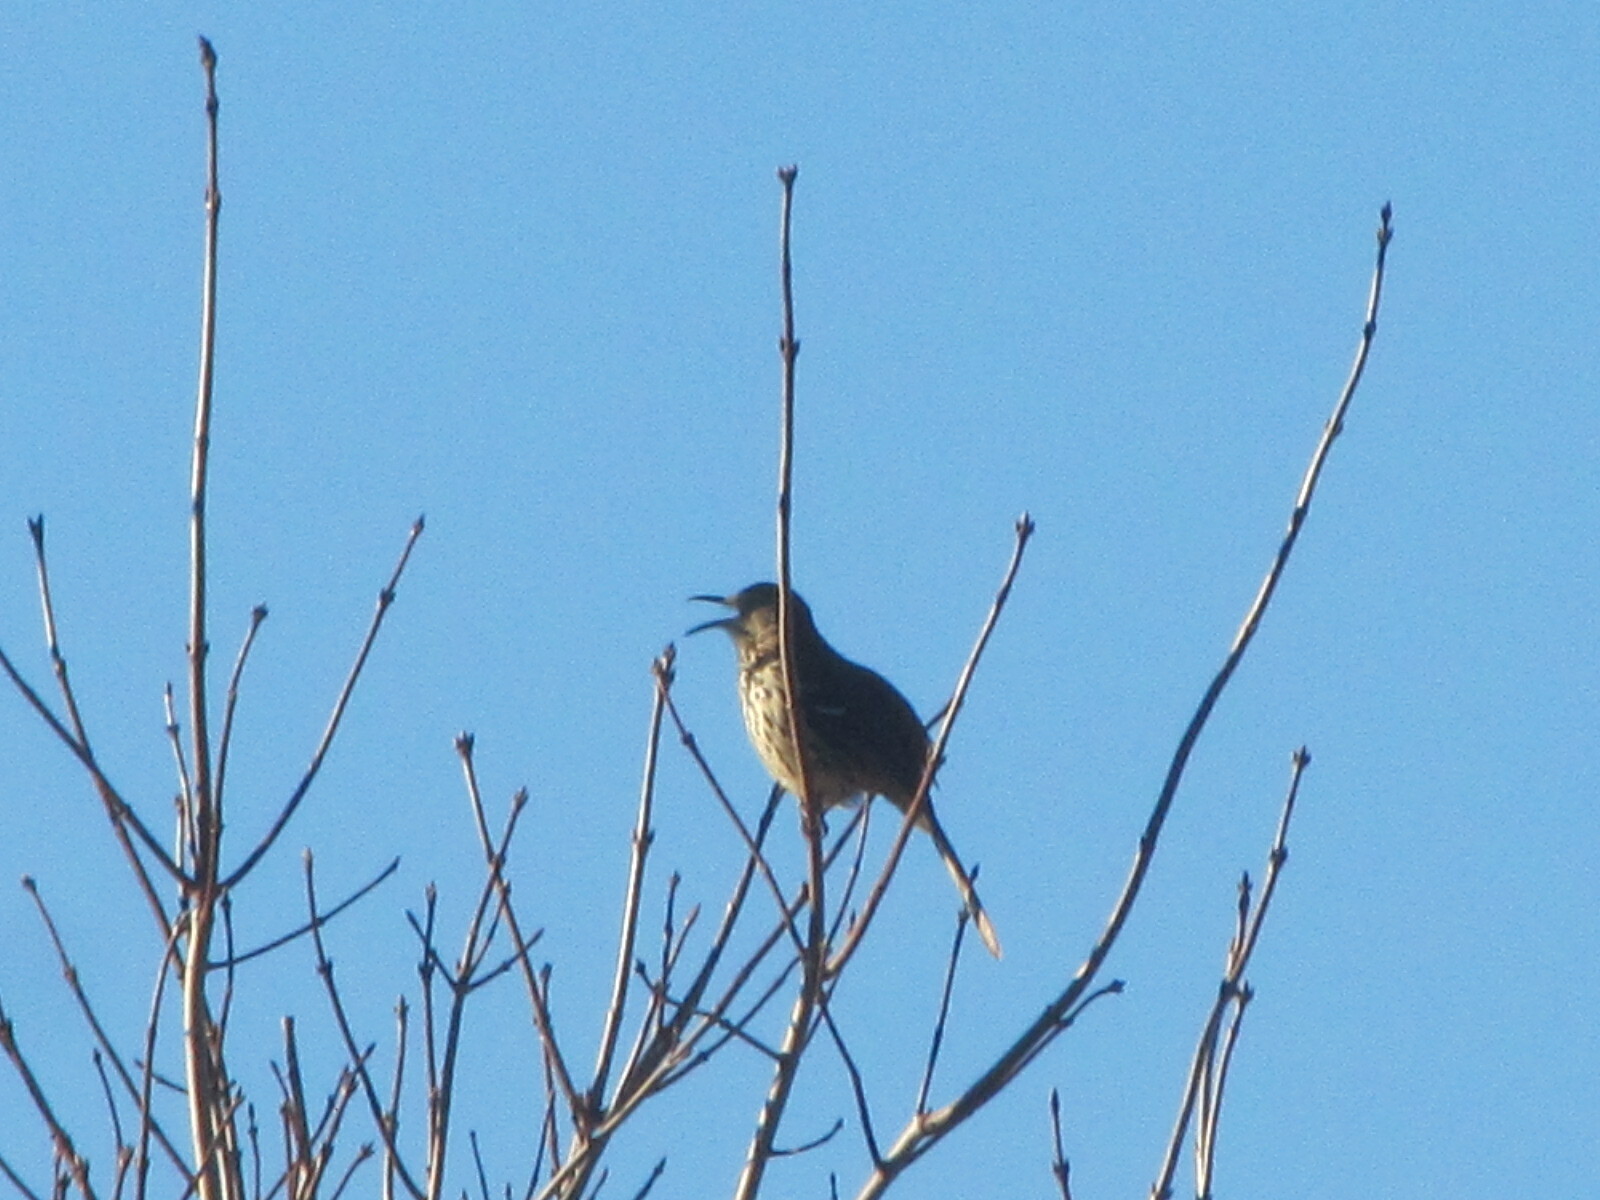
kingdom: Animalia
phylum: Chordata
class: Aves
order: Passeriformes
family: Mimidae
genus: Toxostoma
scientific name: Toxostoma rufum
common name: Brown thrasher
